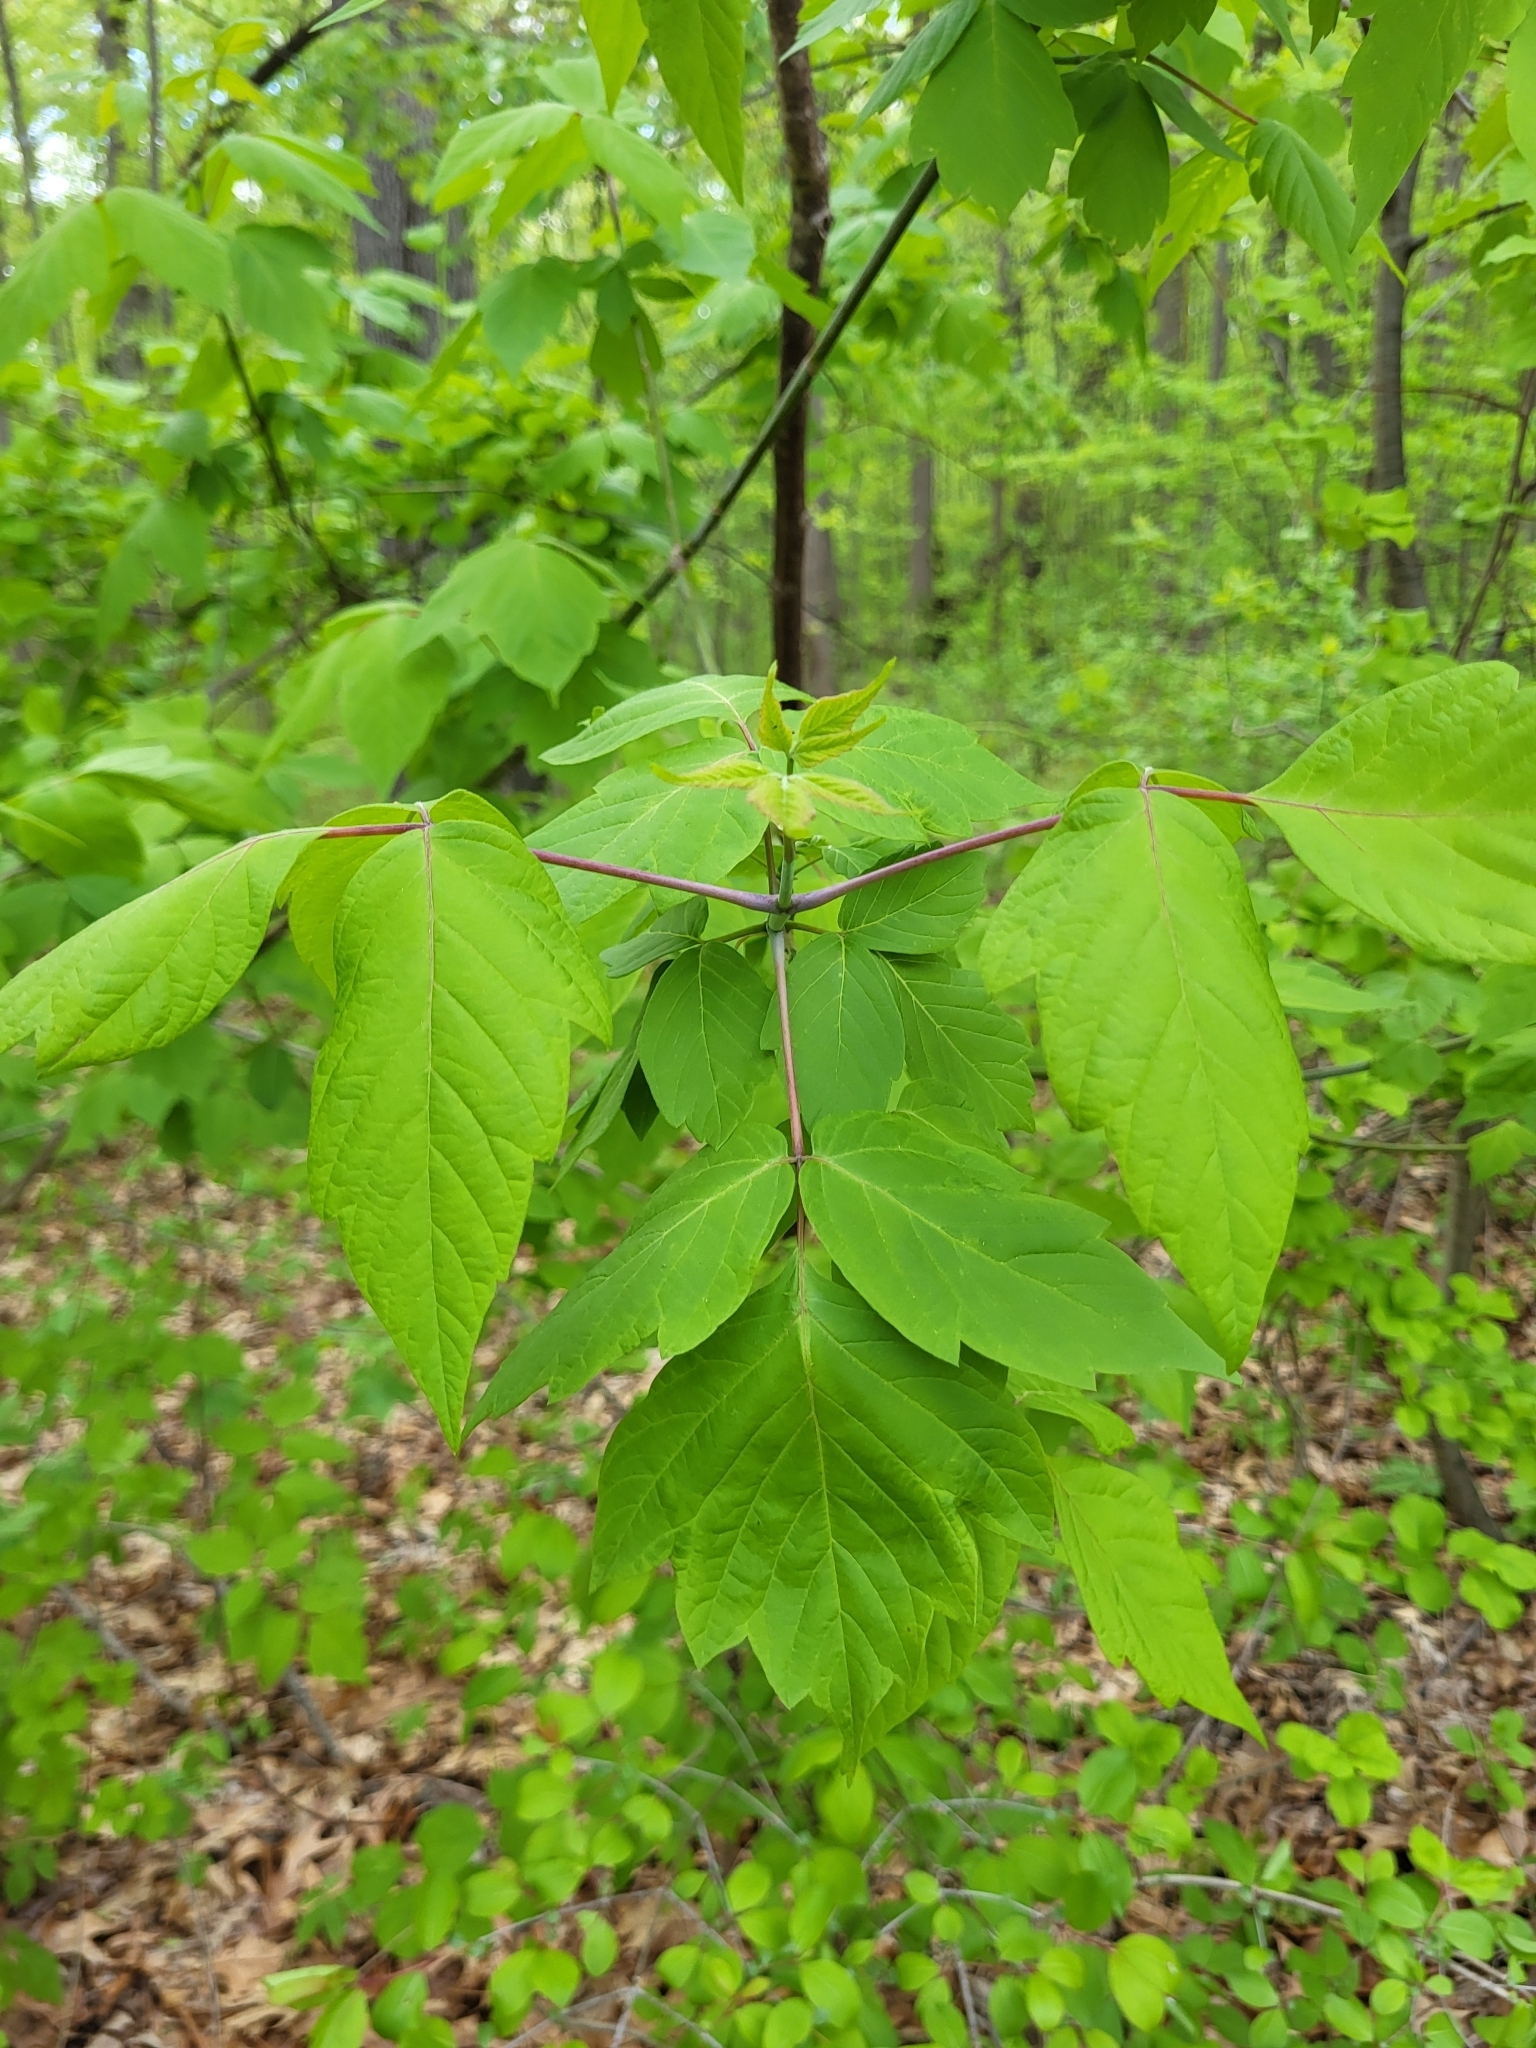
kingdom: Plantae
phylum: Tracheophyta
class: Magnoliopsida
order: Sapindales
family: Sapindaceae
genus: Acer
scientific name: Acer negundo
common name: Ashleaf maple
